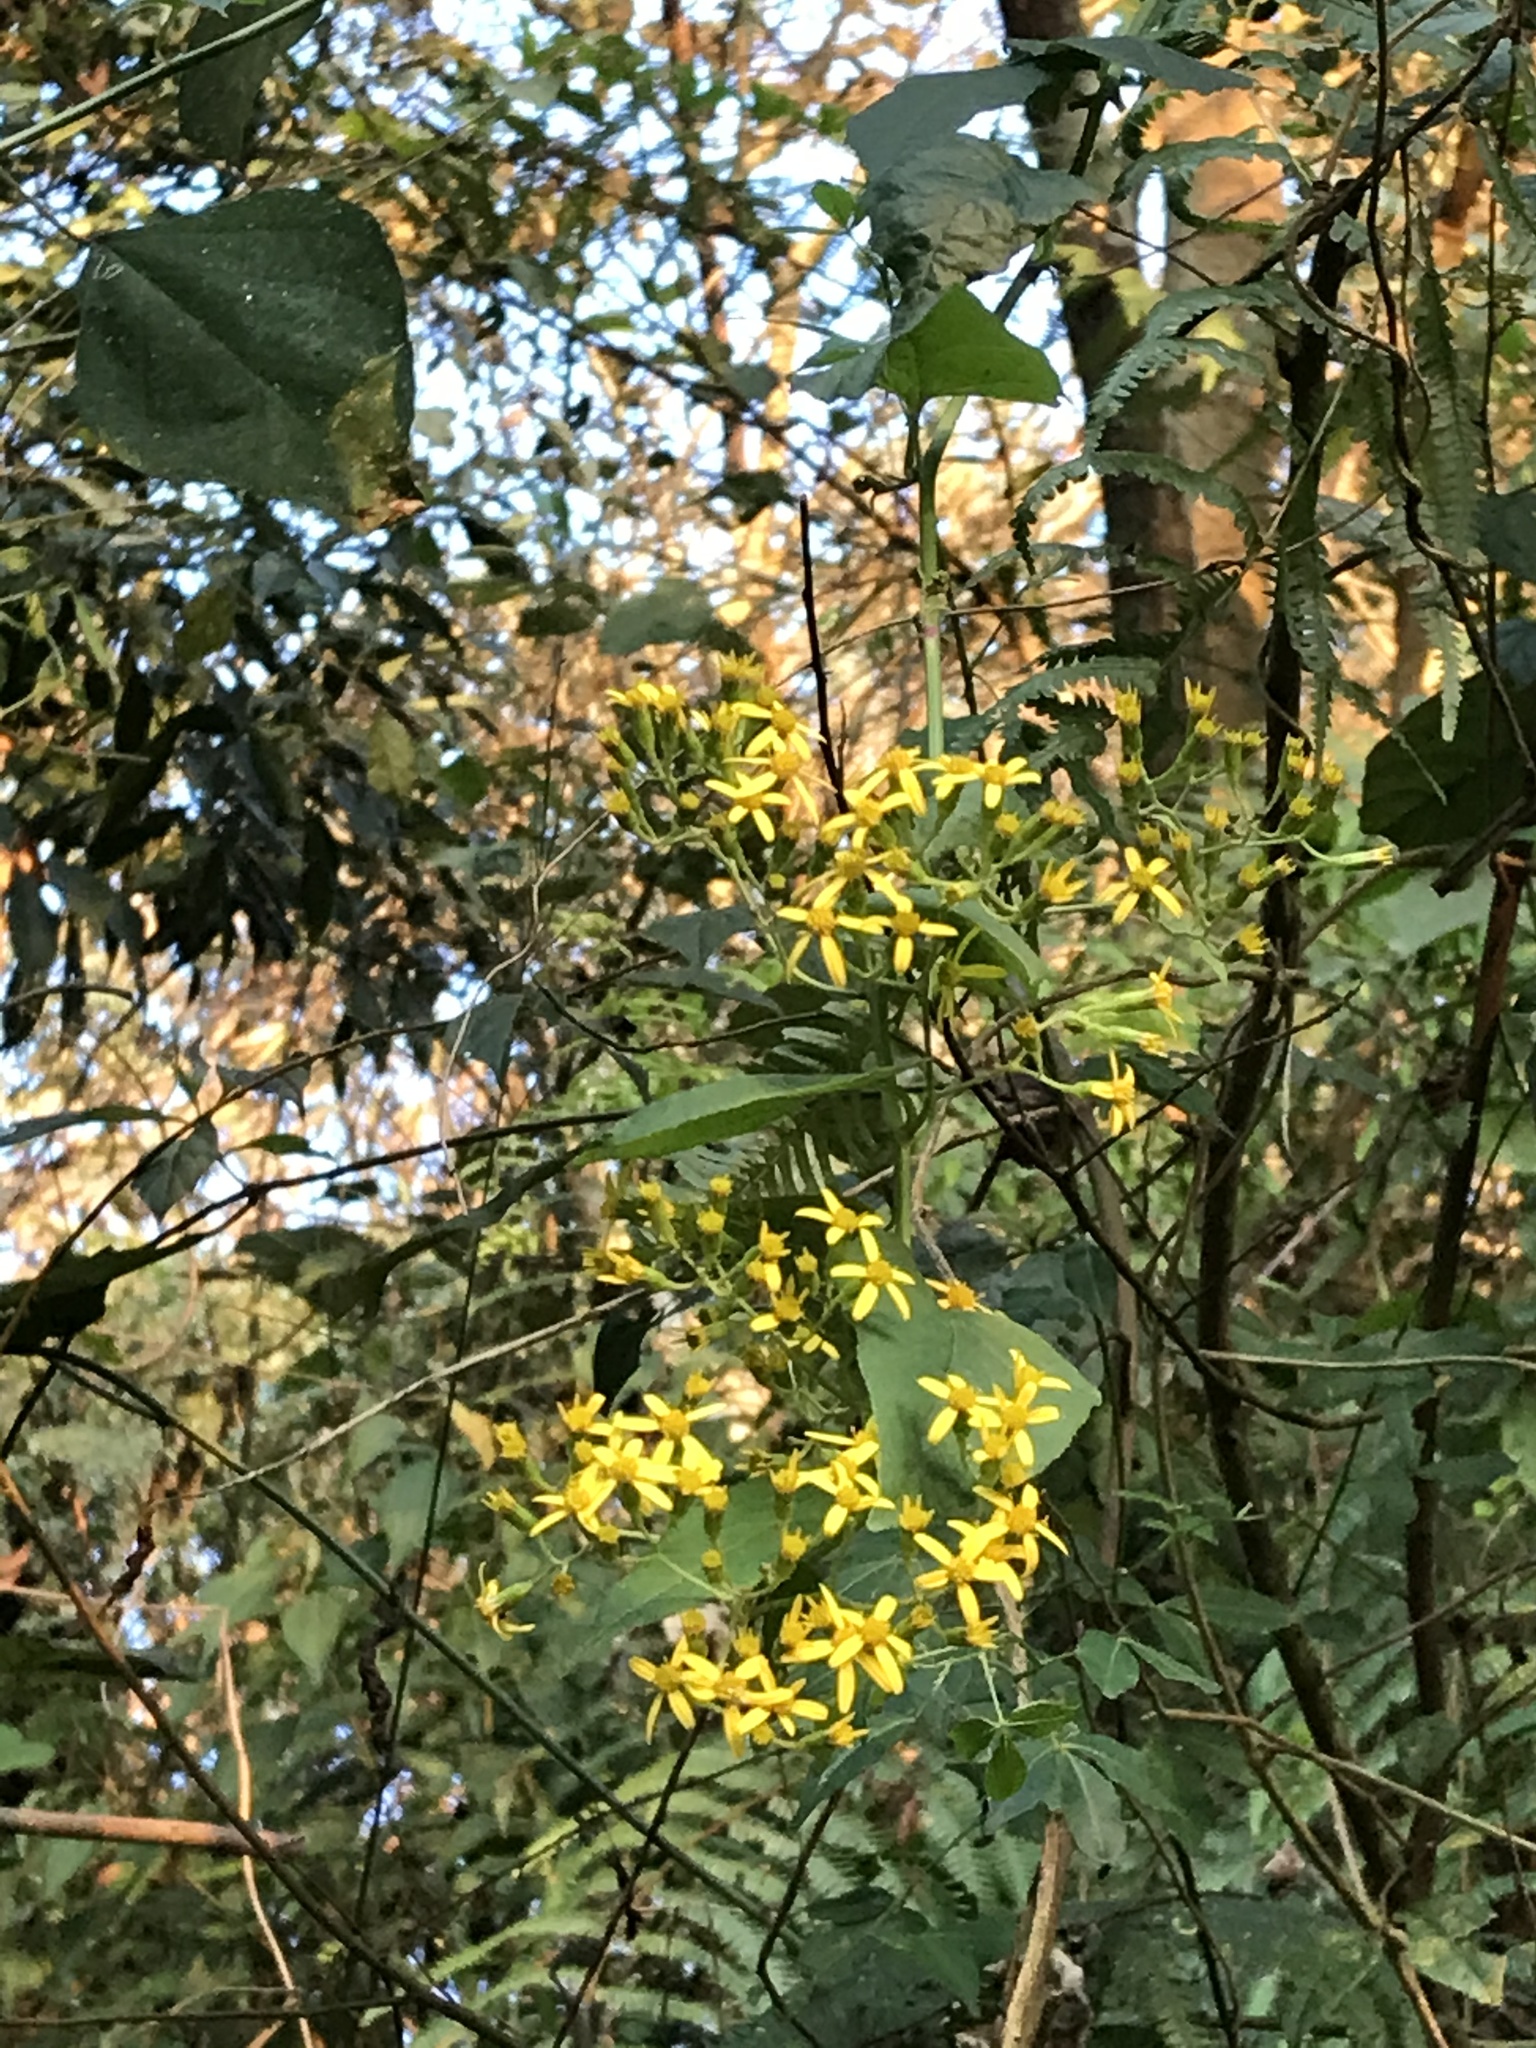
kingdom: Plantae
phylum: Tracheophyta
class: Magnoliopsida
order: Asterales
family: Asteraceae
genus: Senecio
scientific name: Senecio scandens
